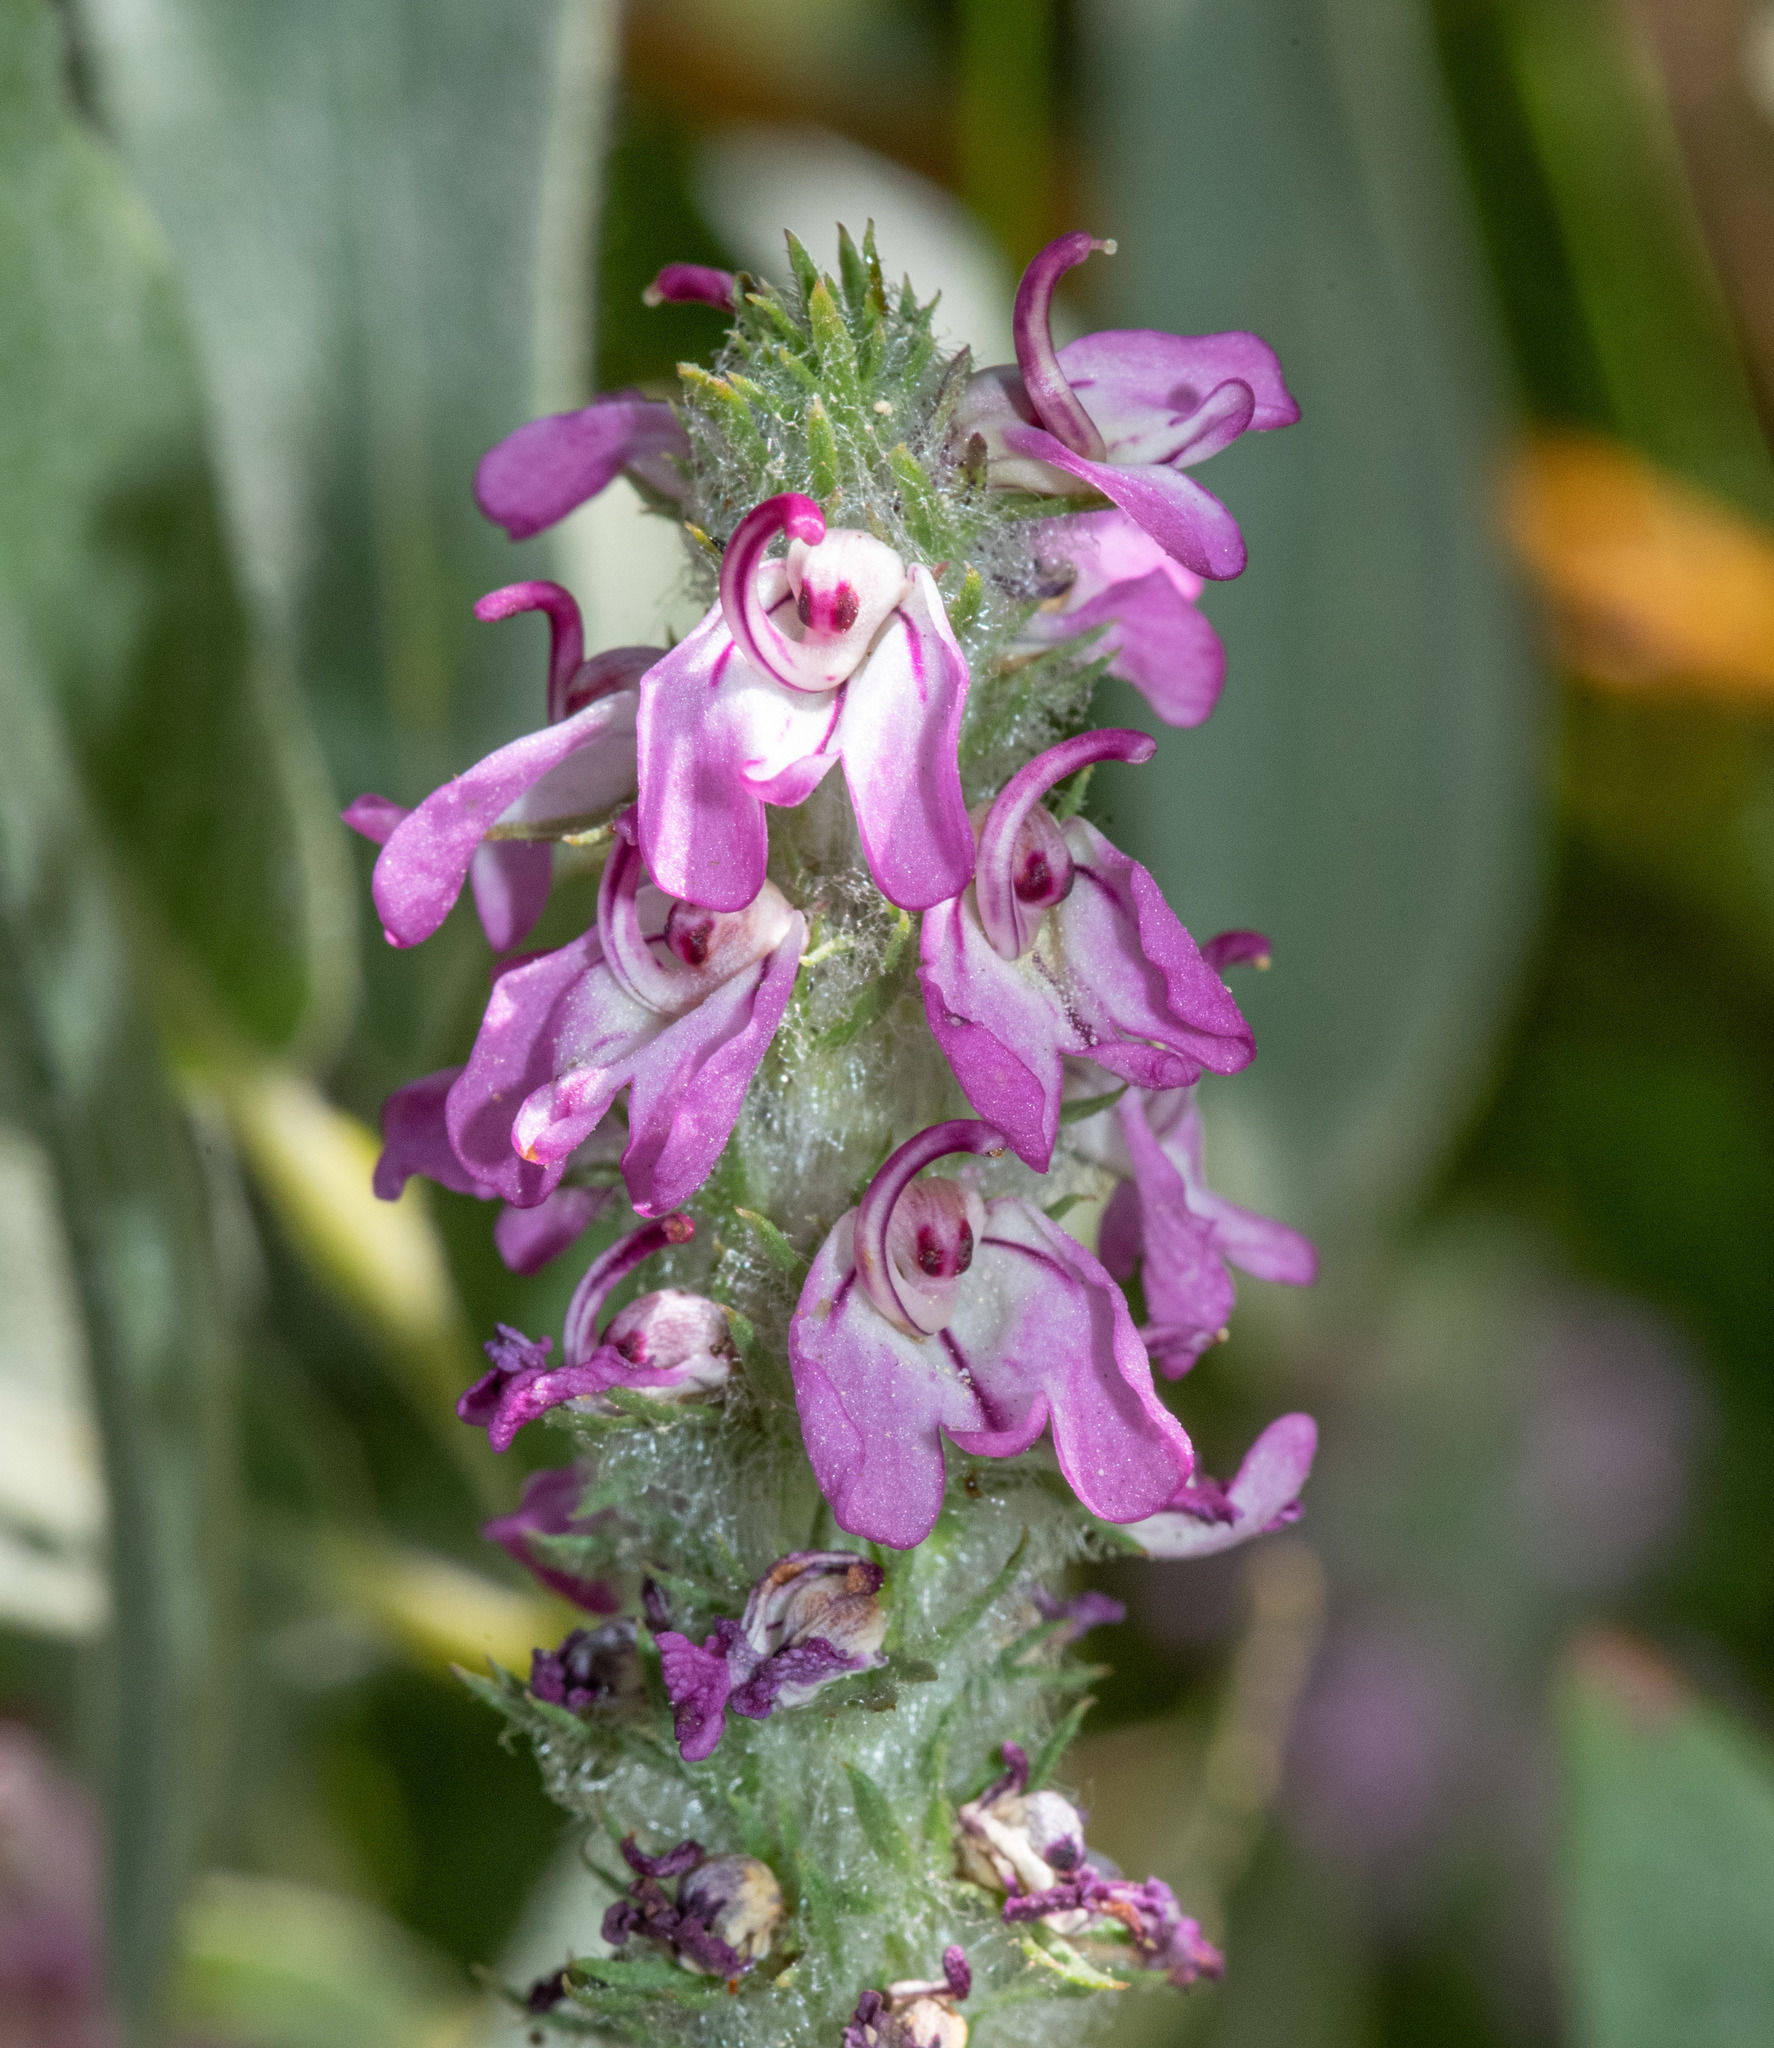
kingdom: Plantae
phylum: Tracheophyta
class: Magnoliopsida
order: Lamiales
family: Orobanchaceae
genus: Pedicularis
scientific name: Pedicularis attollens
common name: Slender pedicularis
